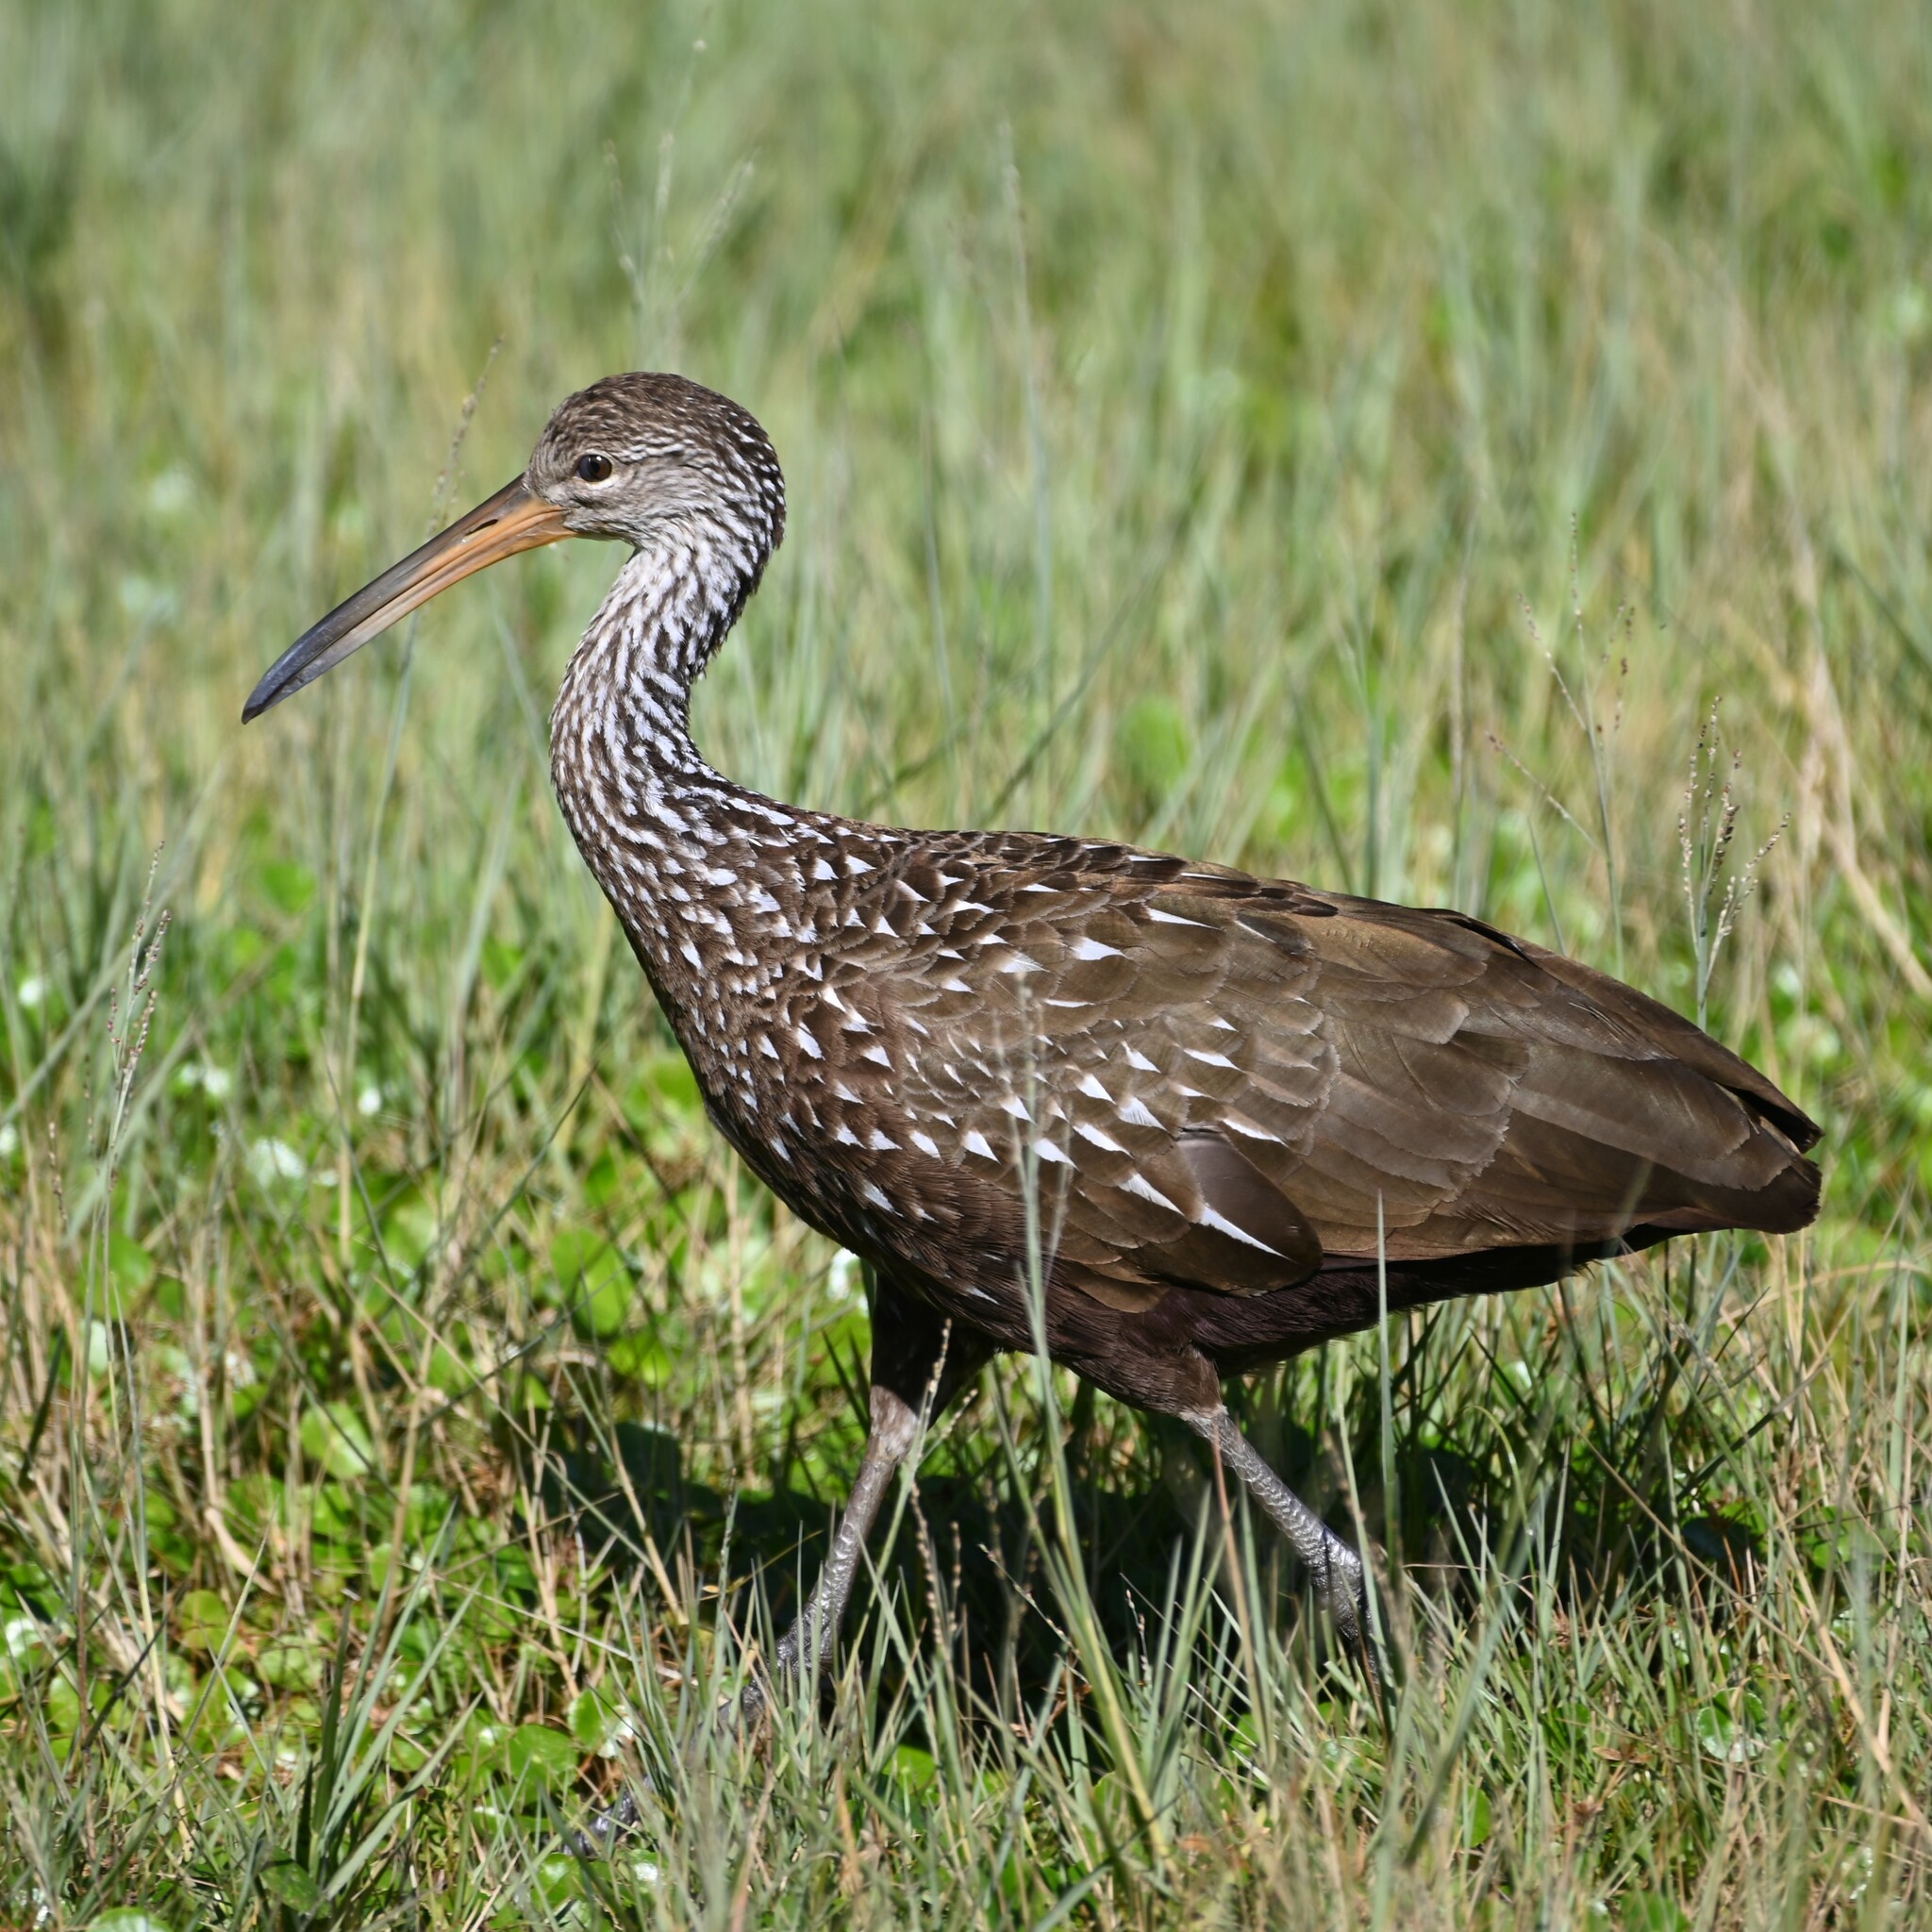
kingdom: Animalia
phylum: Chordata
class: Aves
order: Gruiformes
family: Aramidae
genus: Aramus
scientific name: Aramus guarauna
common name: Limpkin
